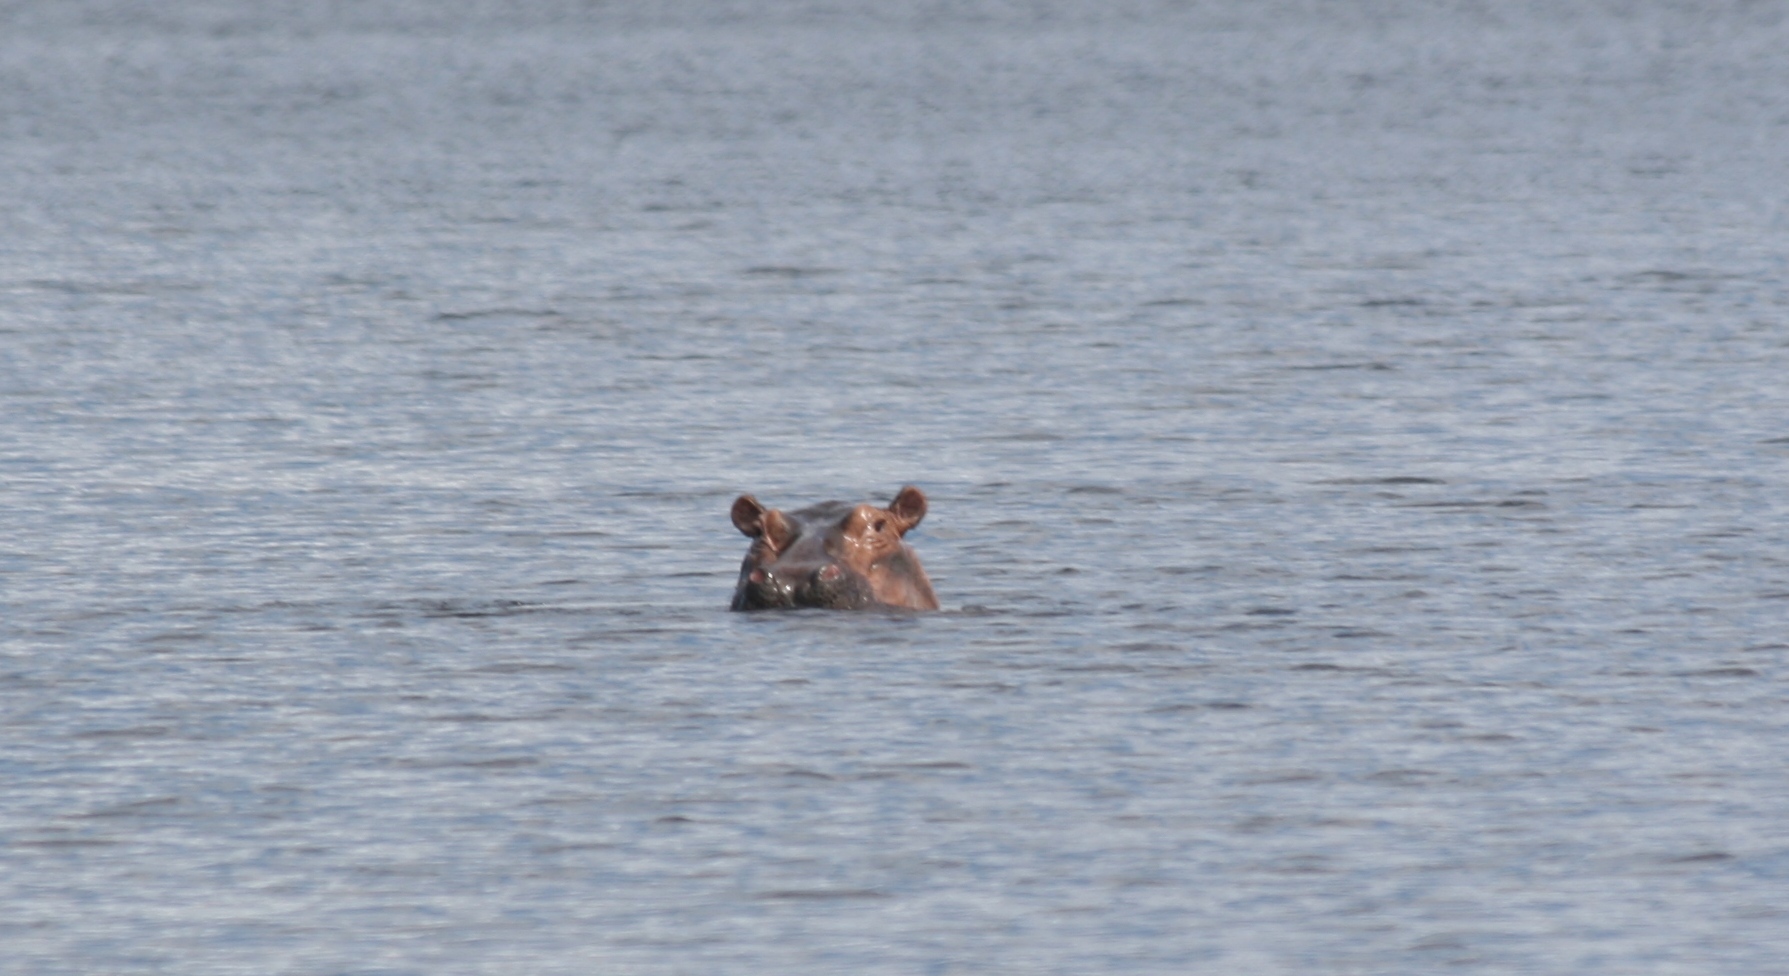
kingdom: Animalia
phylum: Chordata
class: Mammalia
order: Artiodactyla
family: Hippopotamidae
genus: Hippopotamus
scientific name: Hippopotamus amphibius
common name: Common hippopotamus
